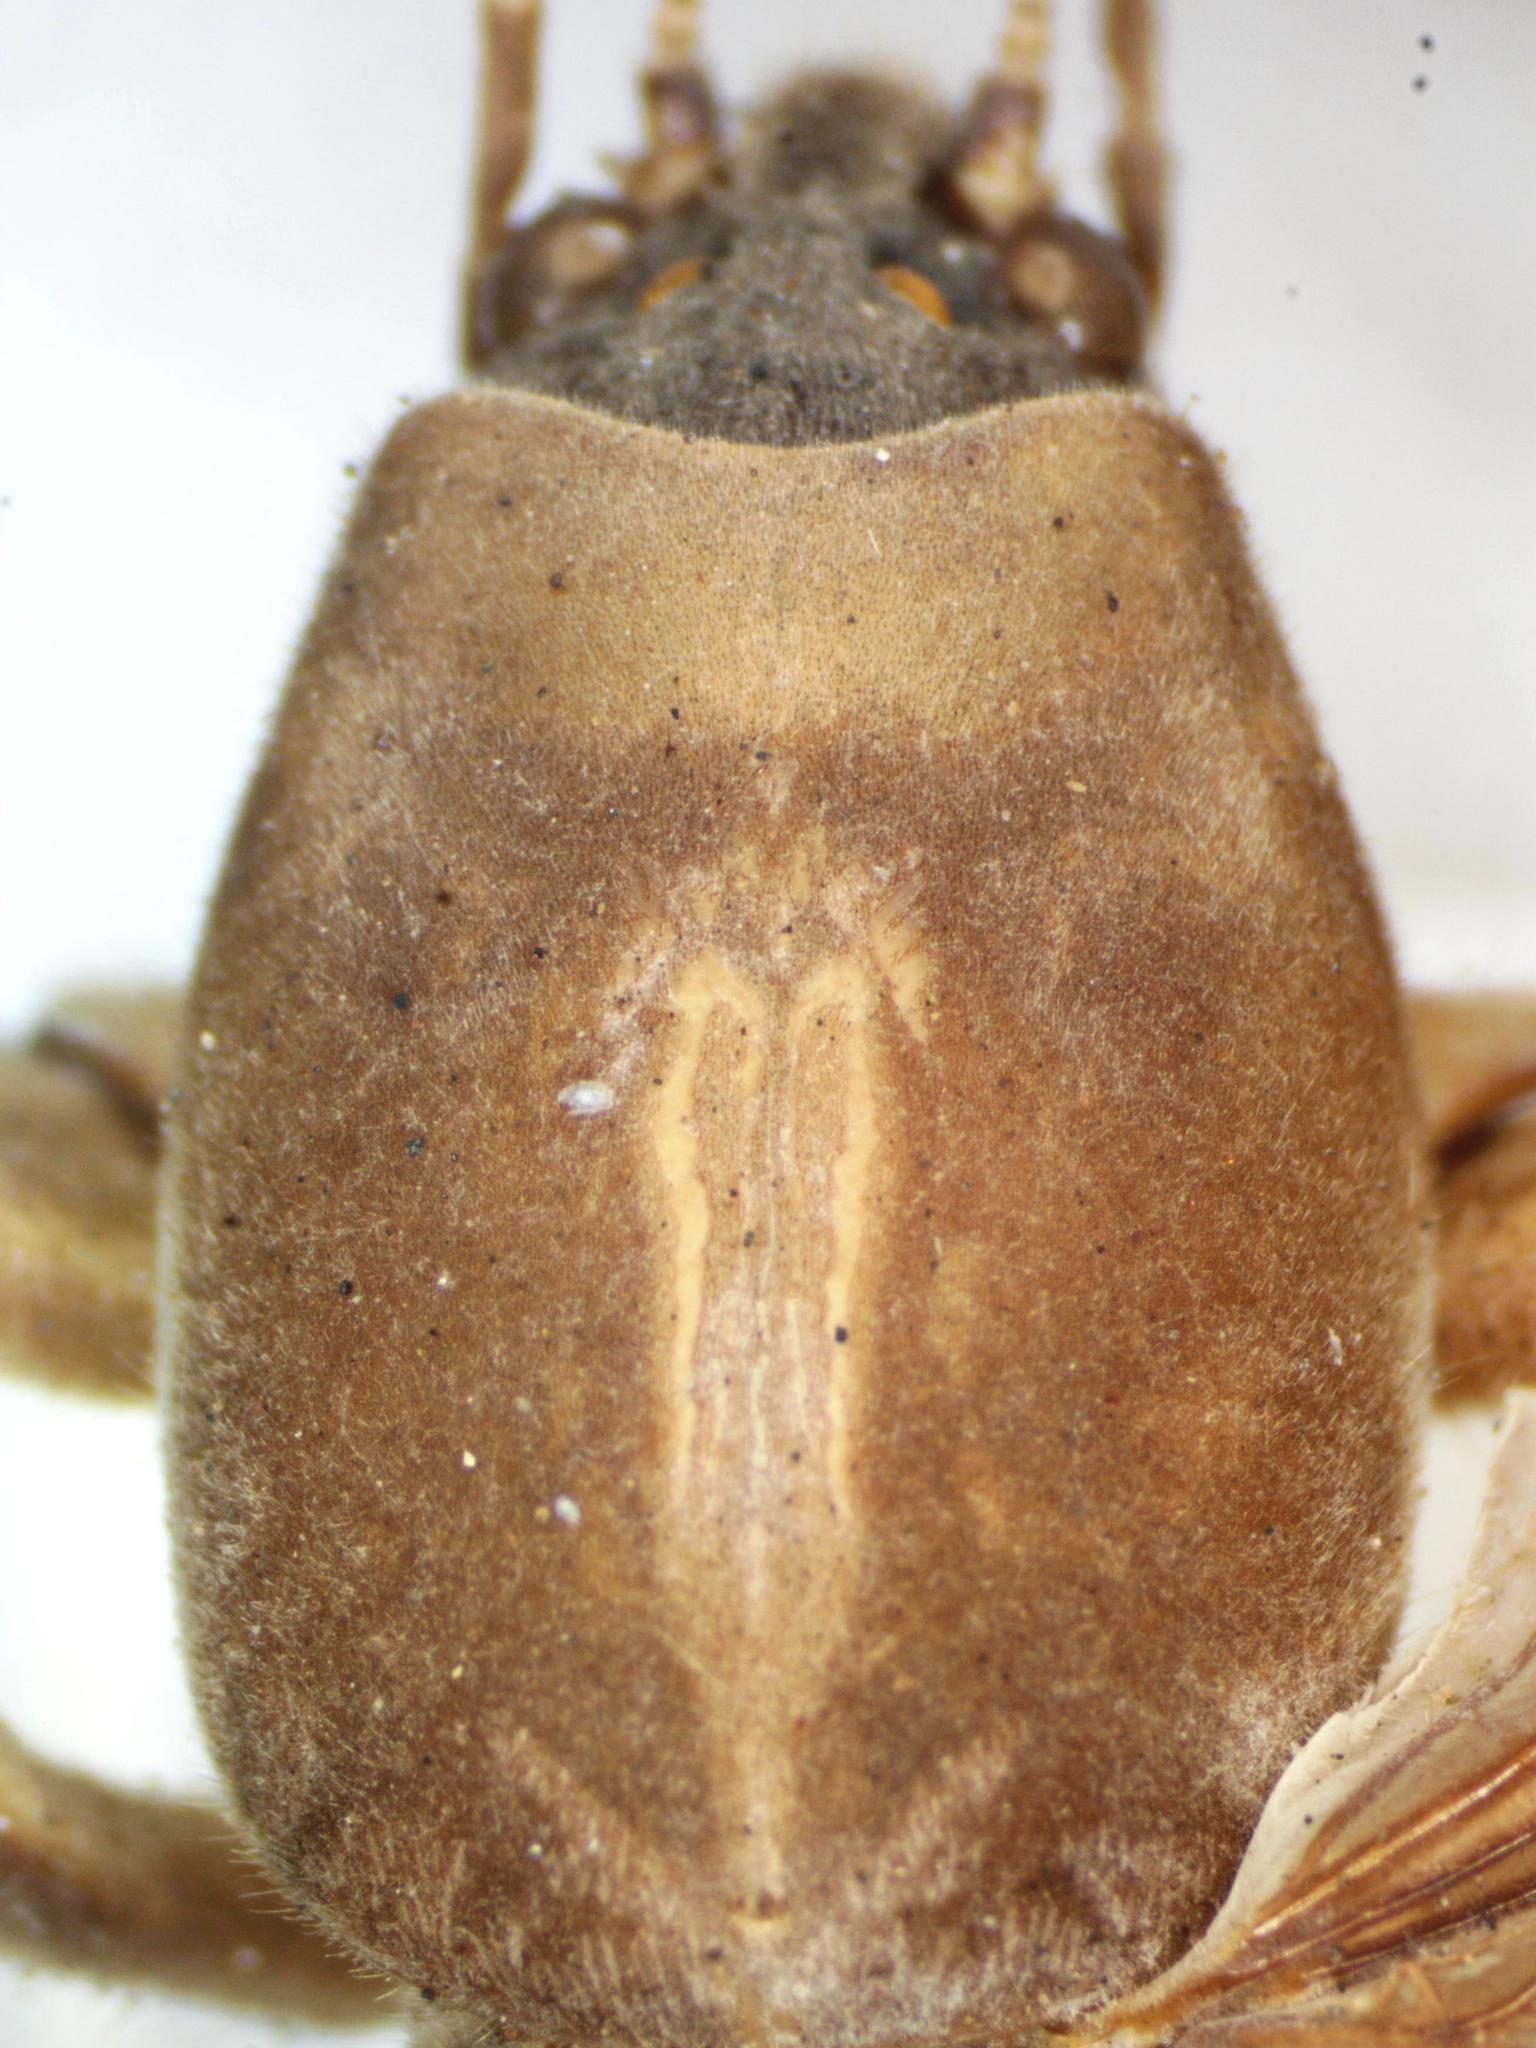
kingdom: Animalia
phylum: Arthropoda
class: Insecta
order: Orthoptera
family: Gryllotalpidae
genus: Neocurtilla
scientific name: Neocurtilla hexadactyla
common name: Northern mole cricket
